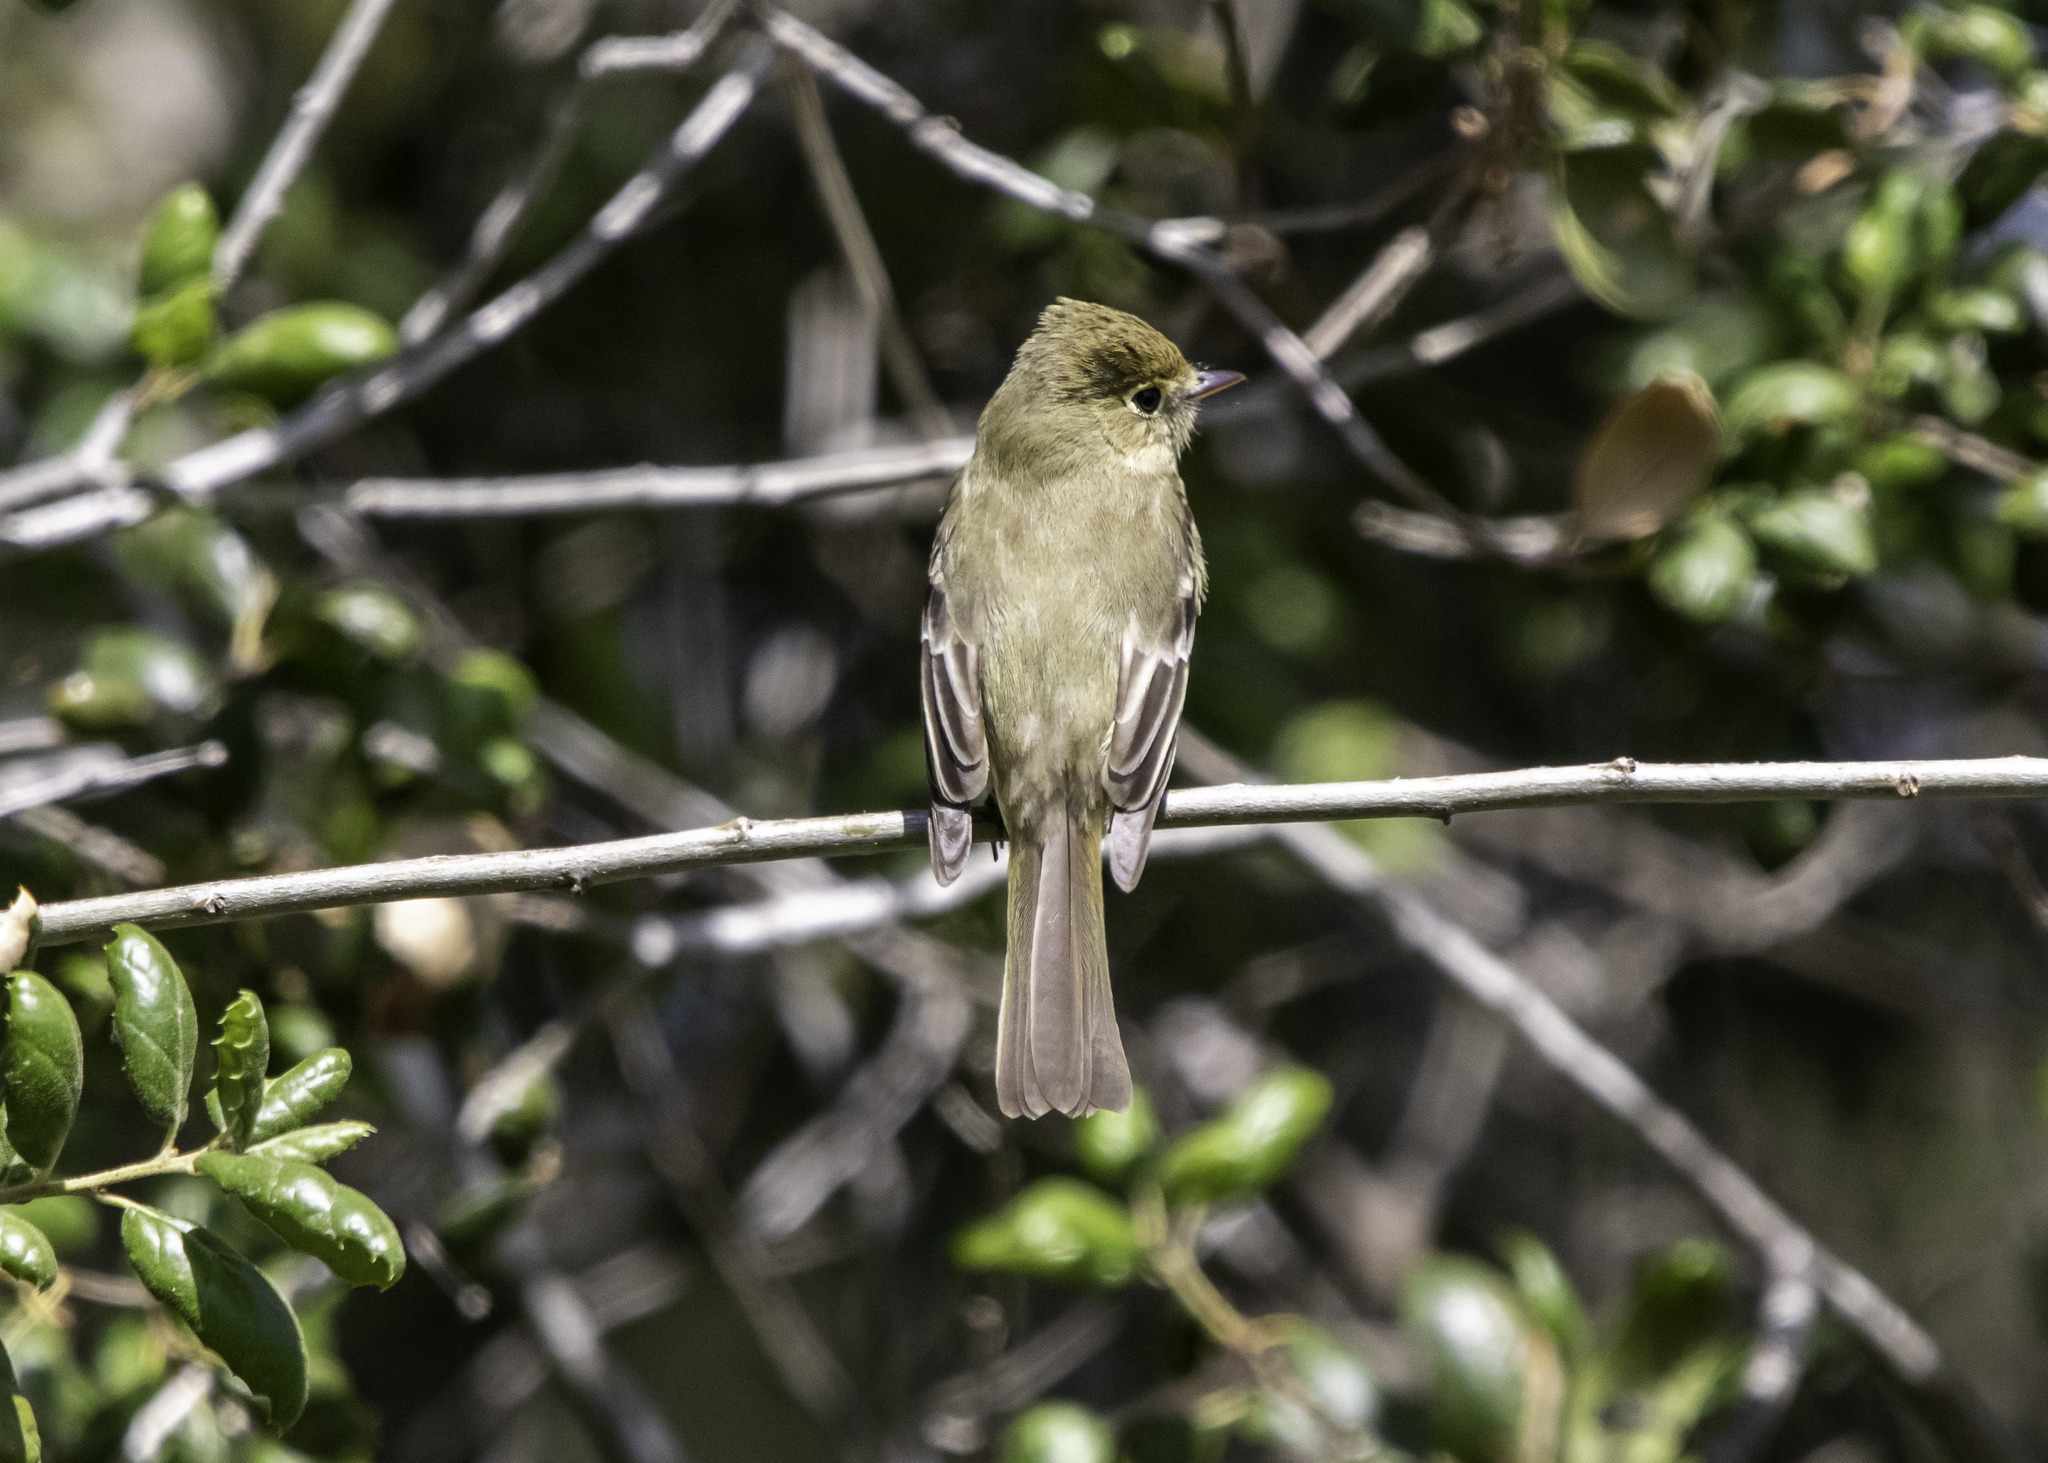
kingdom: Animalia
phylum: Chordata
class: Aves
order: Passeriformes
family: Tyrannidae
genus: Empidonax
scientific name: Empidonax difficilis
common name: Pacific-slope flycatcher
